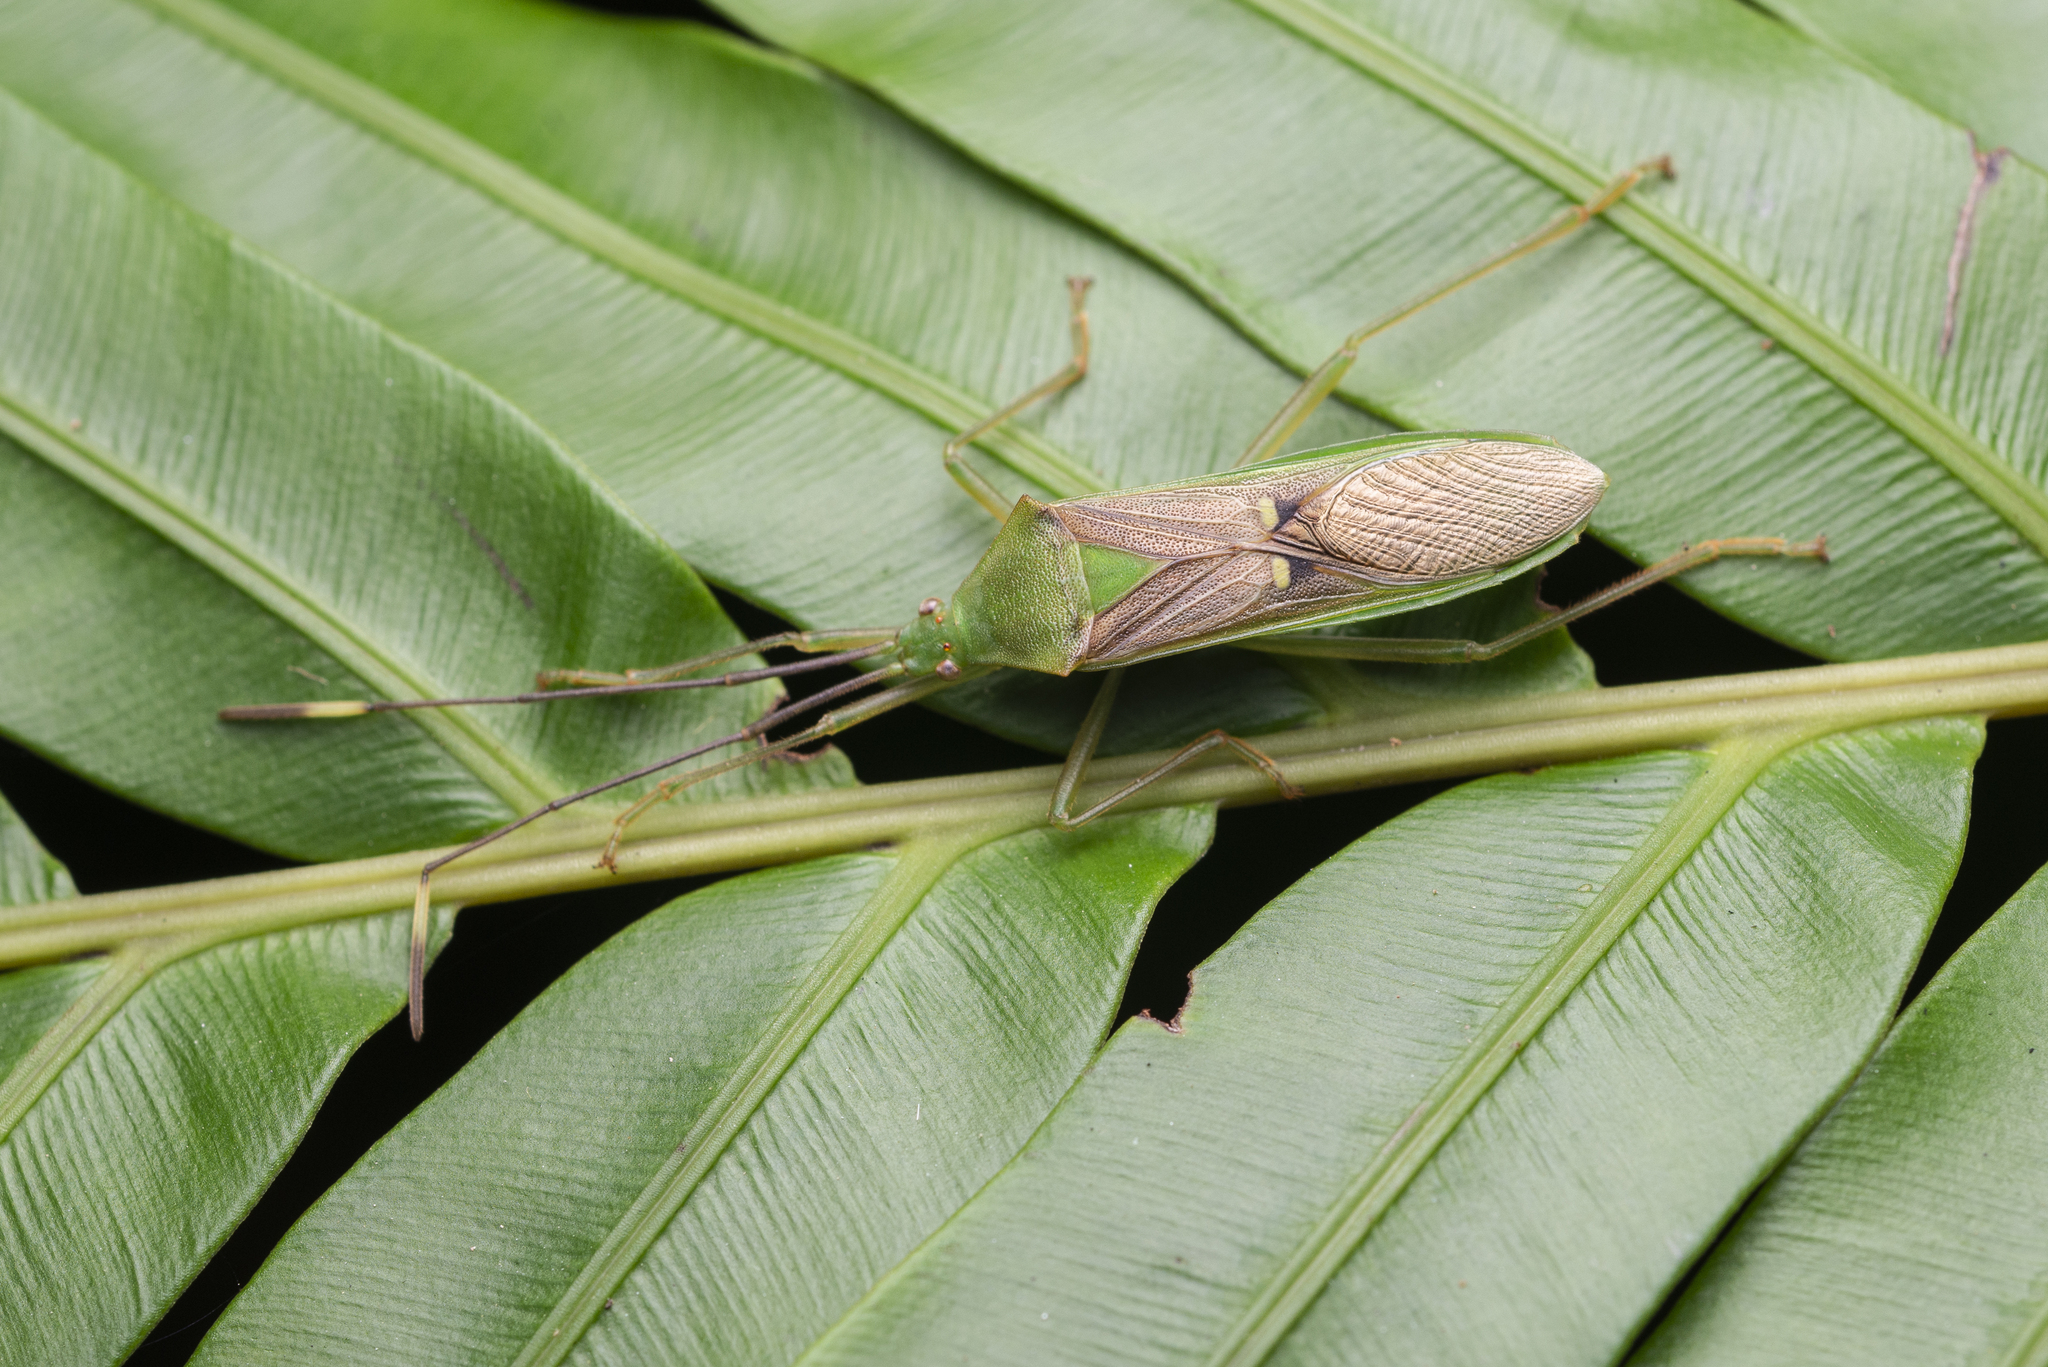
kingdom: Animalia
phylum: Arthropoda
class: Insecta
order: Hemiptera
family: Coreidae
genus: Homoeocerus
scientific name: Homoeocerus bipunctatus
